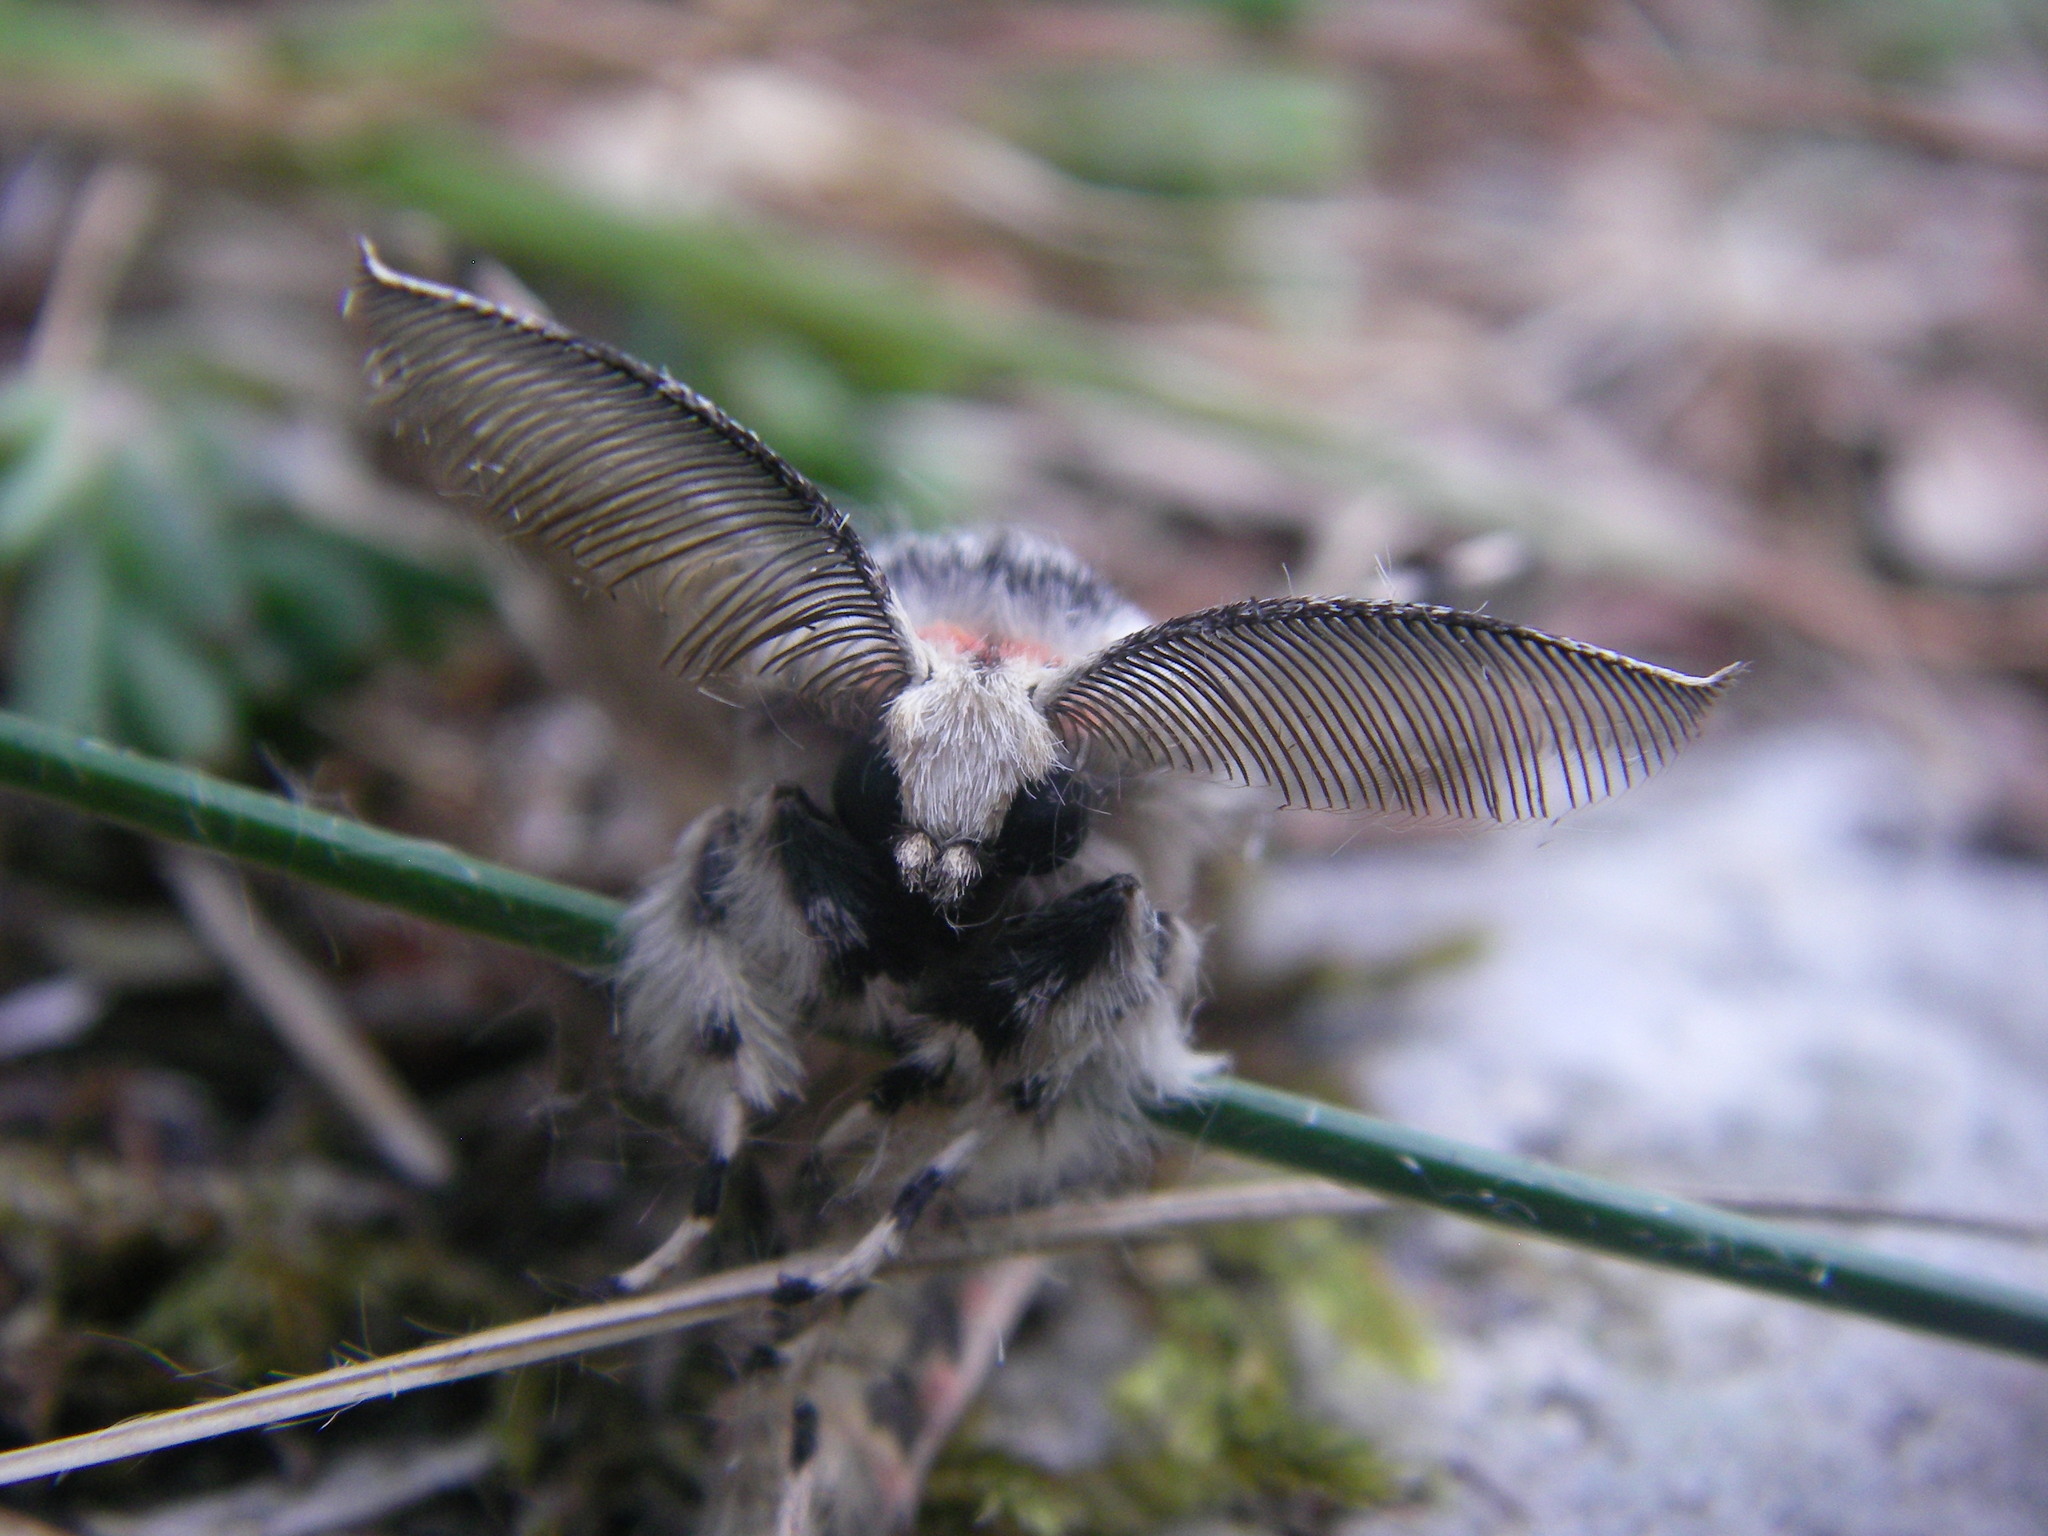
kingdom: Animalia
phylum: Arthropoda
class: Insecta
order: Lepidoptera
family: Erebidae
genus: Lymantria
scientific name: Lymantria monacha
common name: Black arches
